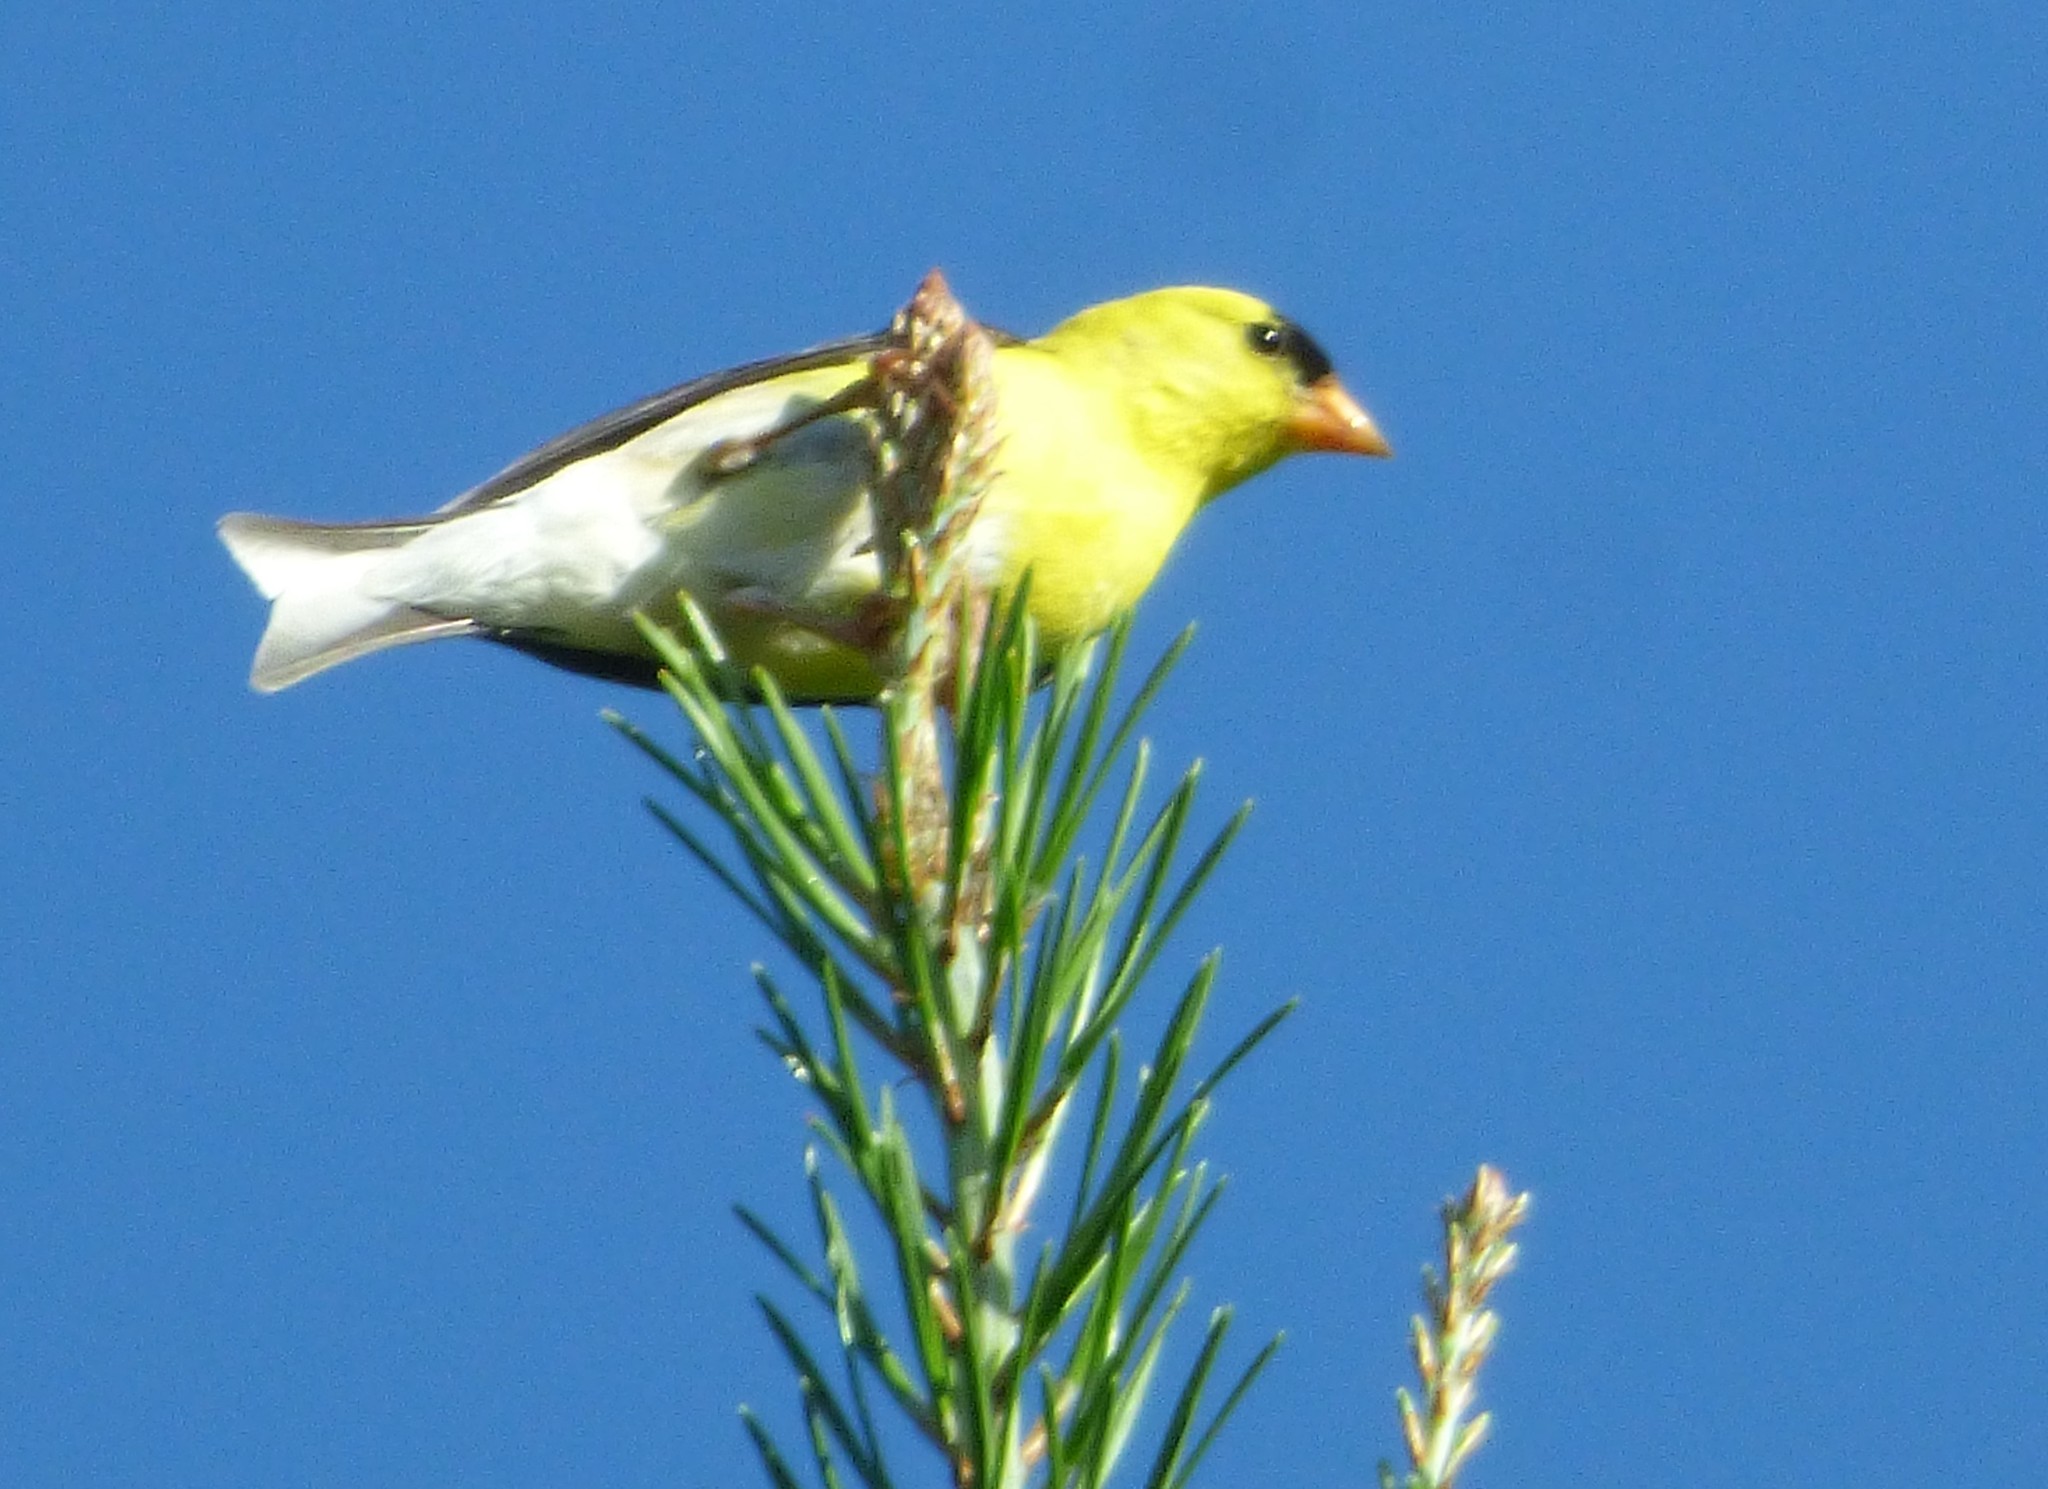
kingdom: Animalia
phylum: Chordata
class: Aves
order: Passeriformes
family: Fringillidae
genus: Spinus
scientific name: Spinus tristis
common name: American goldfinch
